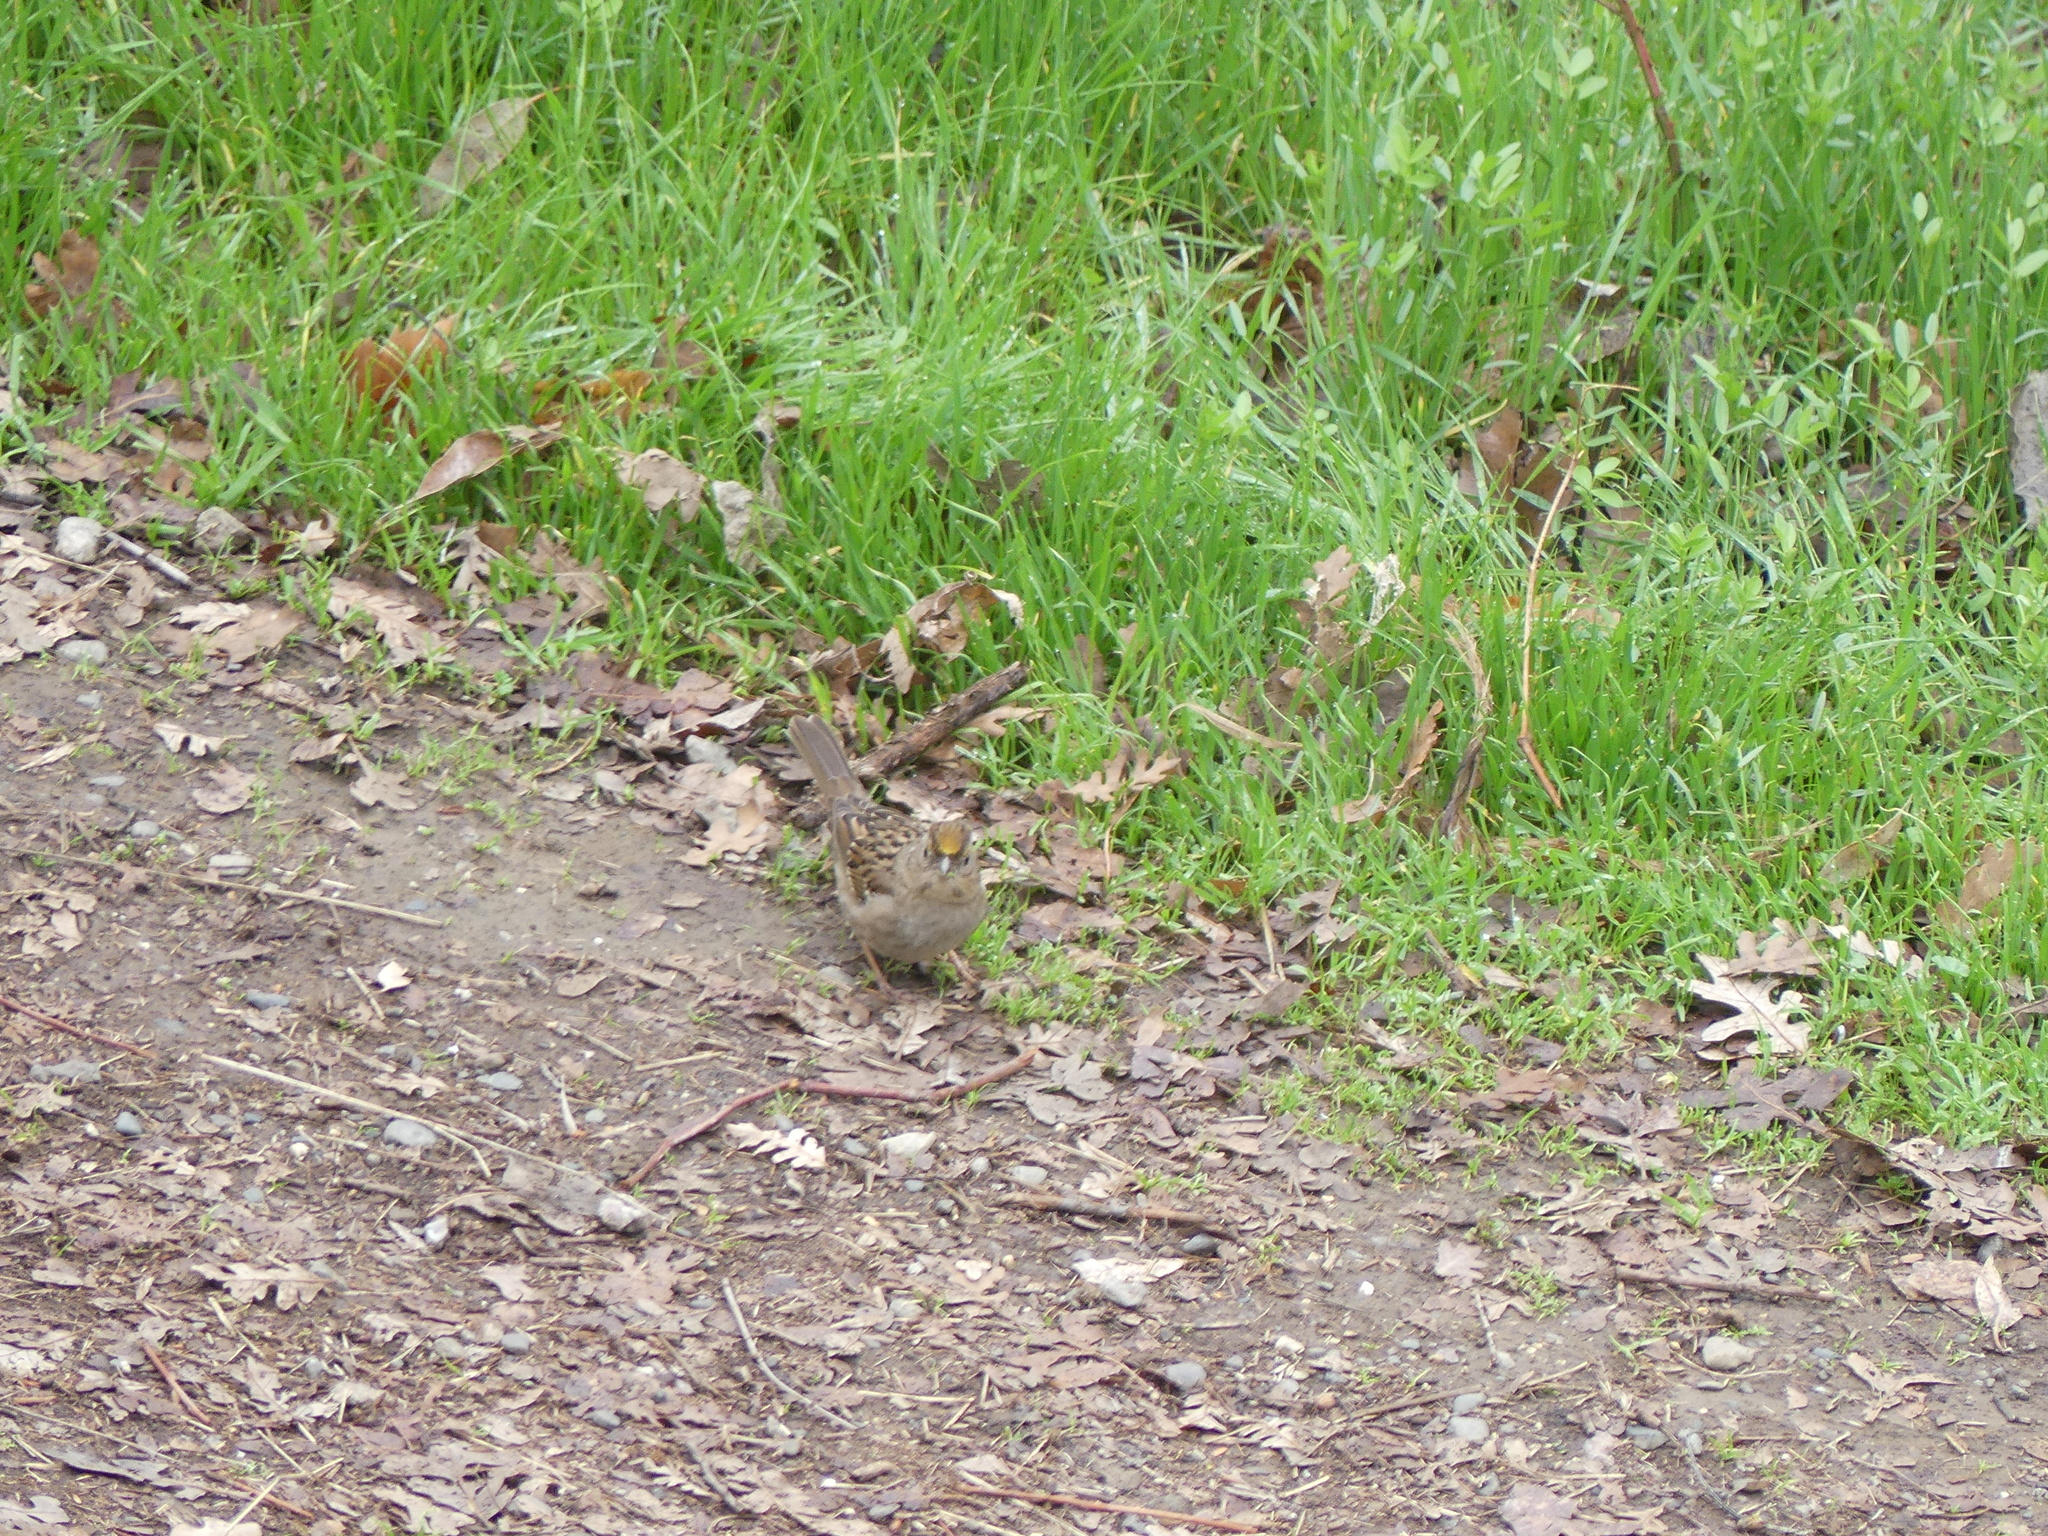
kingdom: Animalia
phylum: Chordata
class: Aves
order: Passeriformes
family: Passerellidae
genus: Zonotrichia
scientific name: Zonotrichia atricapilla
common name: Golden-crowned sparrow
